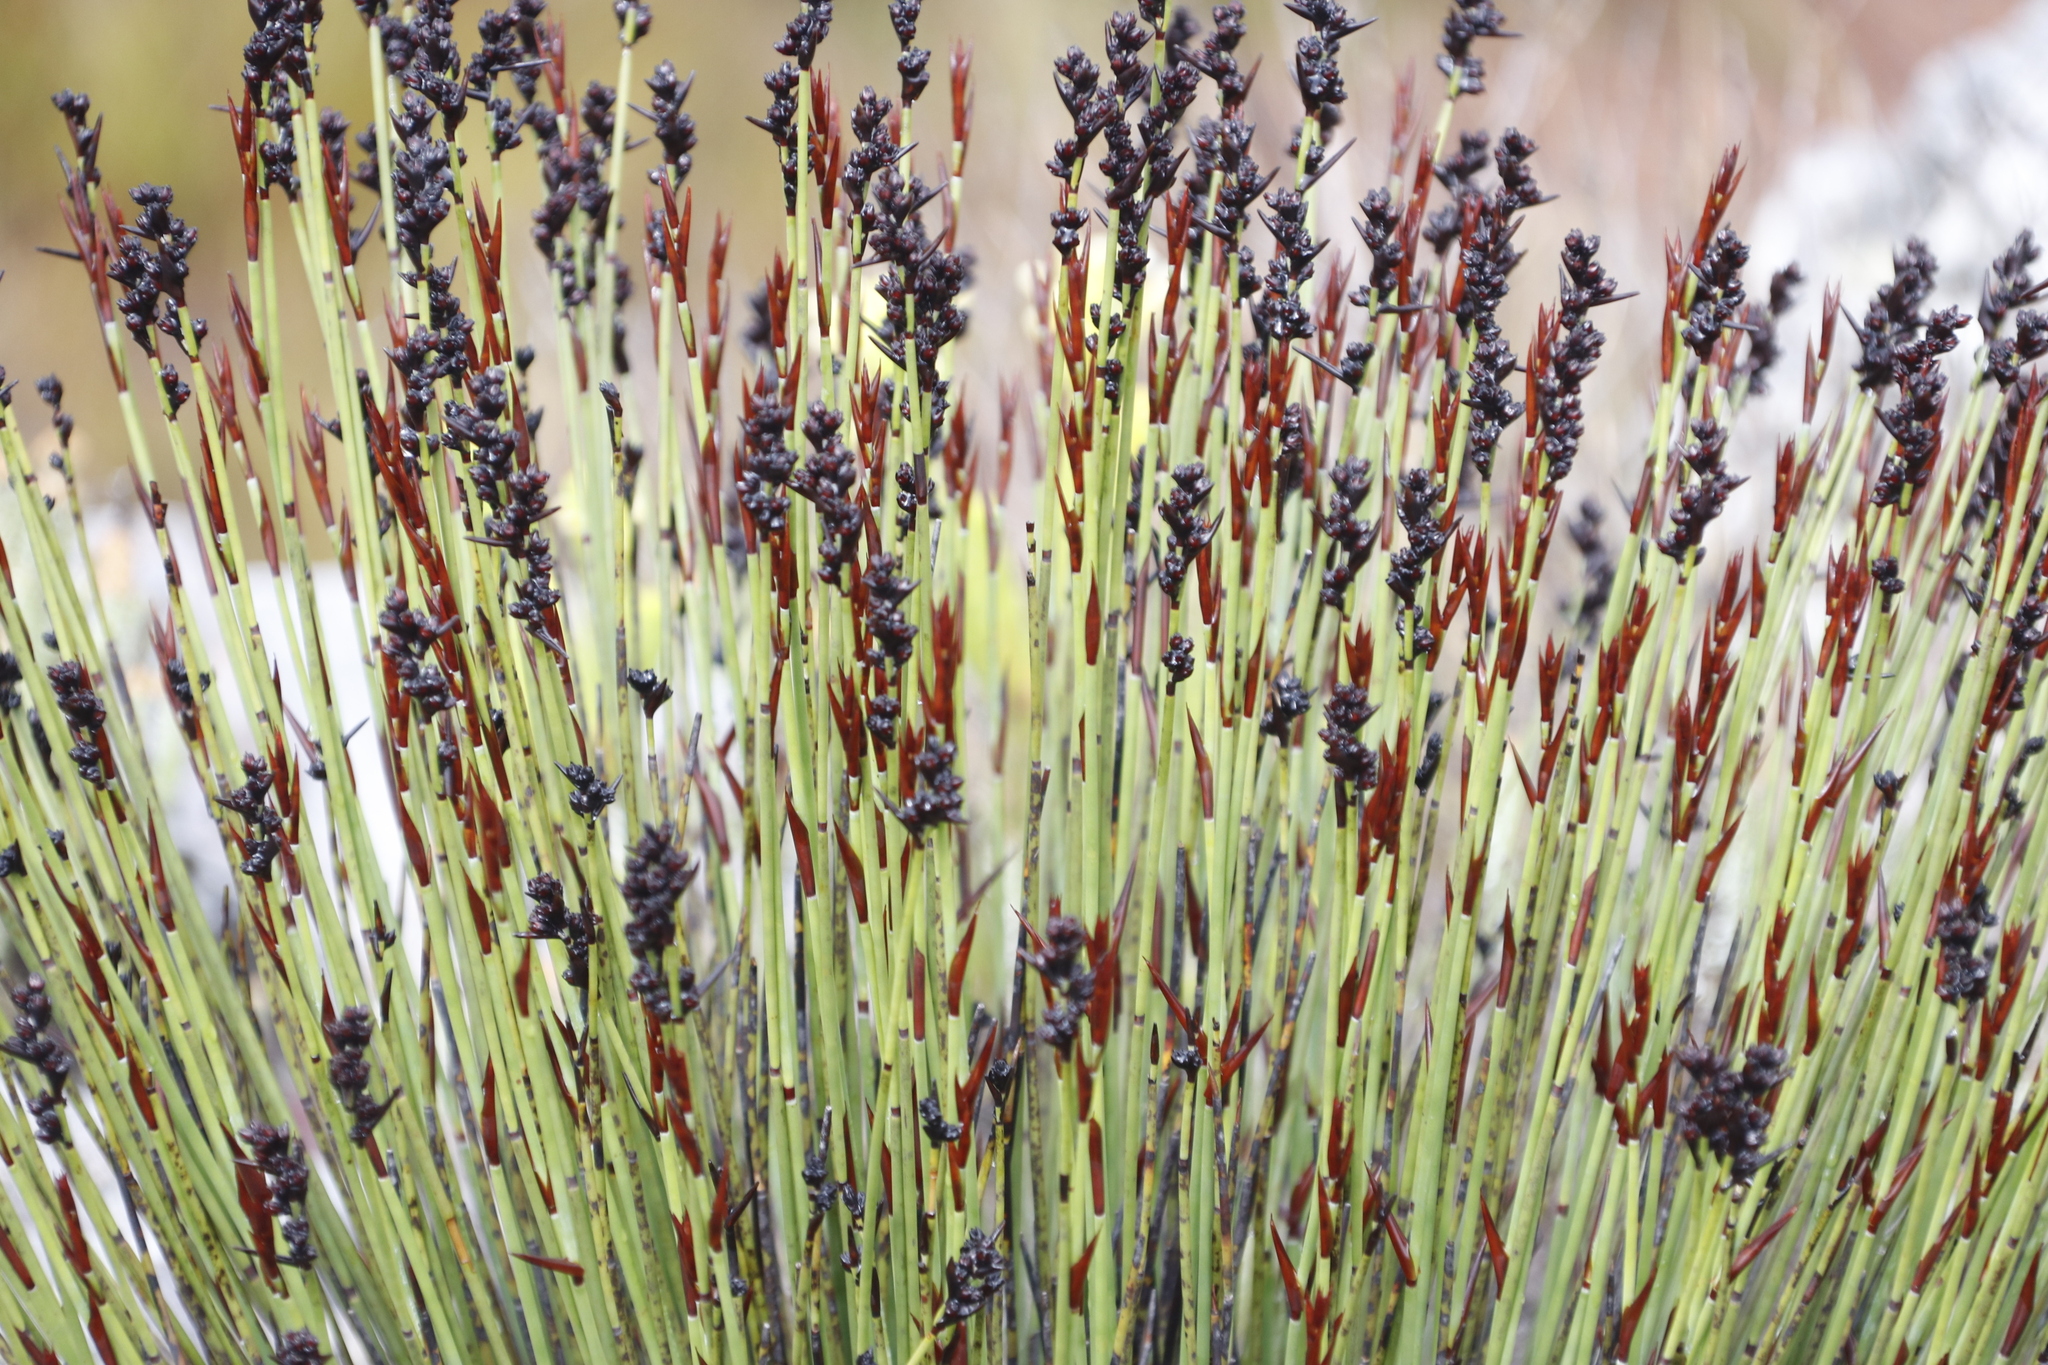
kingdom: Plantae
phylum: Tracheophyta
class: Liliopsida
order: Poales
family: Restionaceae
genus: Elegia
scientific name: Elegia ebracteata
